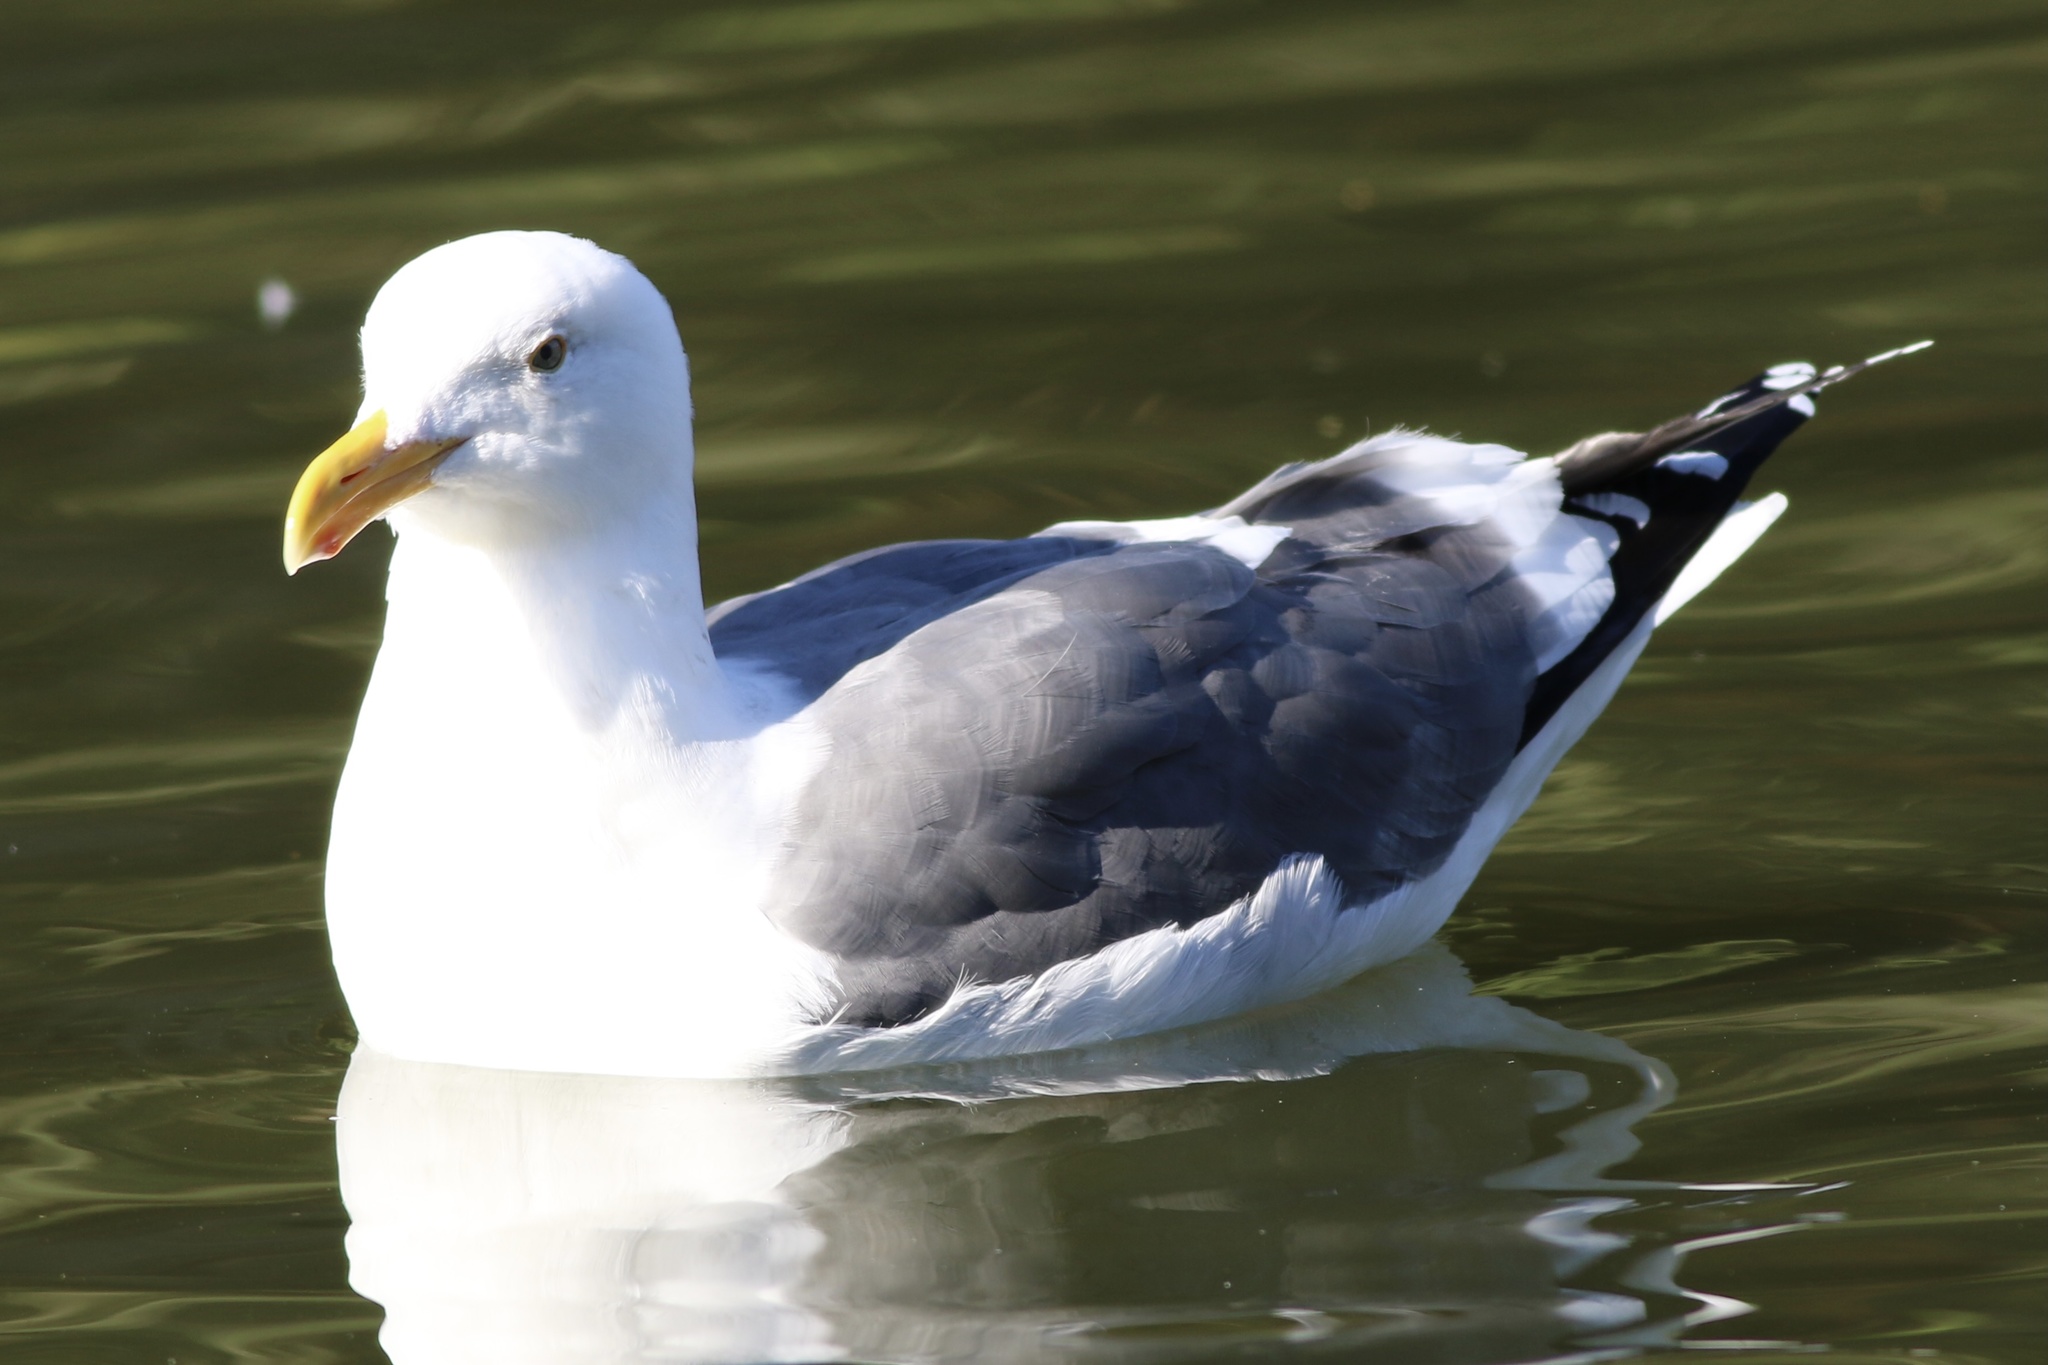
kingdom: Animalia
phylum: Chordata
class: Aves
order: Charadriiformes
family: Laridae
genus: Larus
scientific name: Larus occidentalis
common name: Western gull
